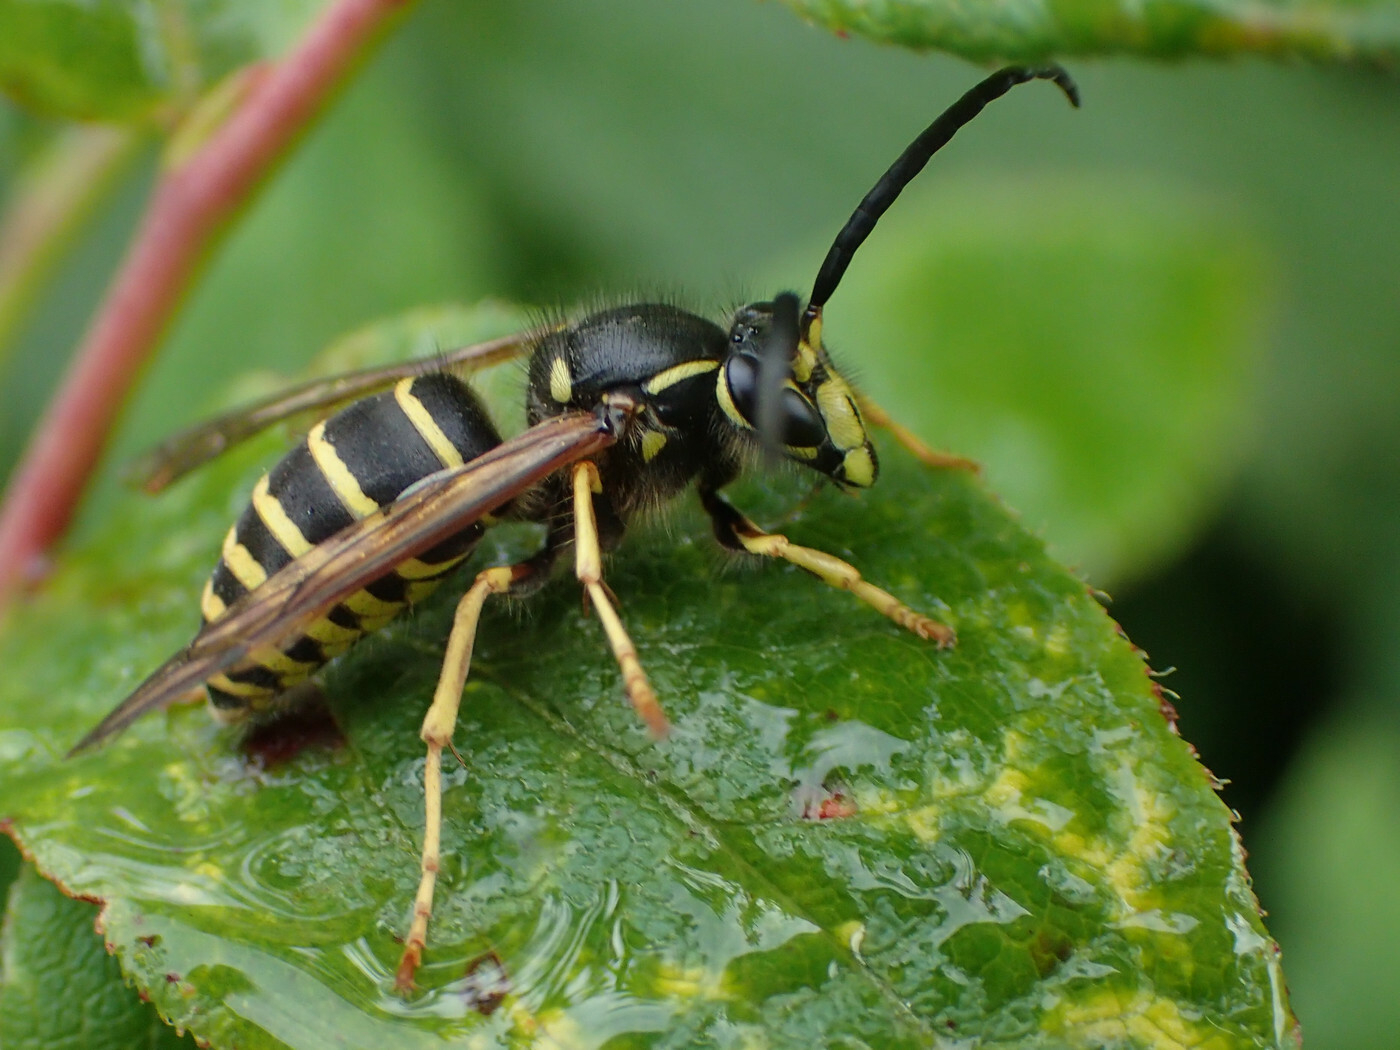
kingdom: Animalia
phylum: Arthropoda
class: Insecta
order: Hymenoptera
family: Vespidae
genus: Dolichovespula
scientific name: Dolichovespula norvegicoides
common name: Northern aerial yellowjacket
